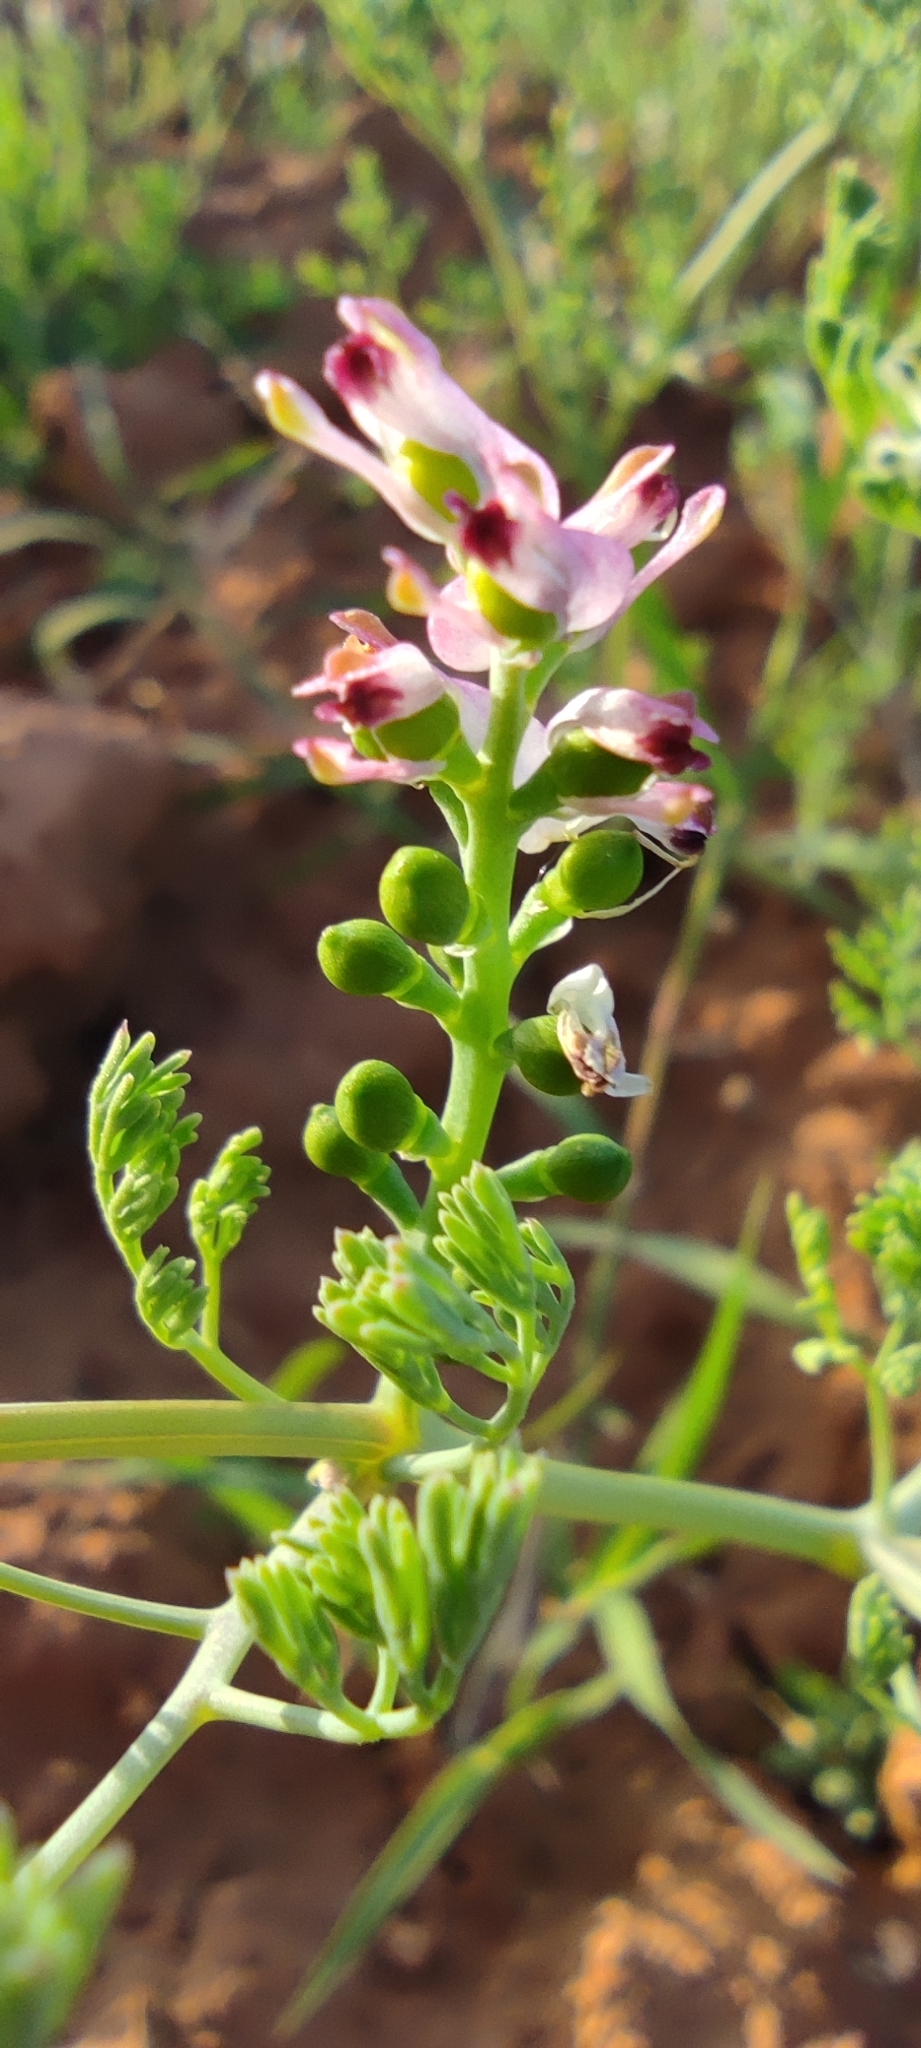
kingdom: Plantae
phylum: Tracheophyta
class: Magnoliopsida
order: Ranunculales
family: Papaveraceae
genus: Fumaria
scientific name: Fumaria parviflora
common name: Fine-leaved fumitory
